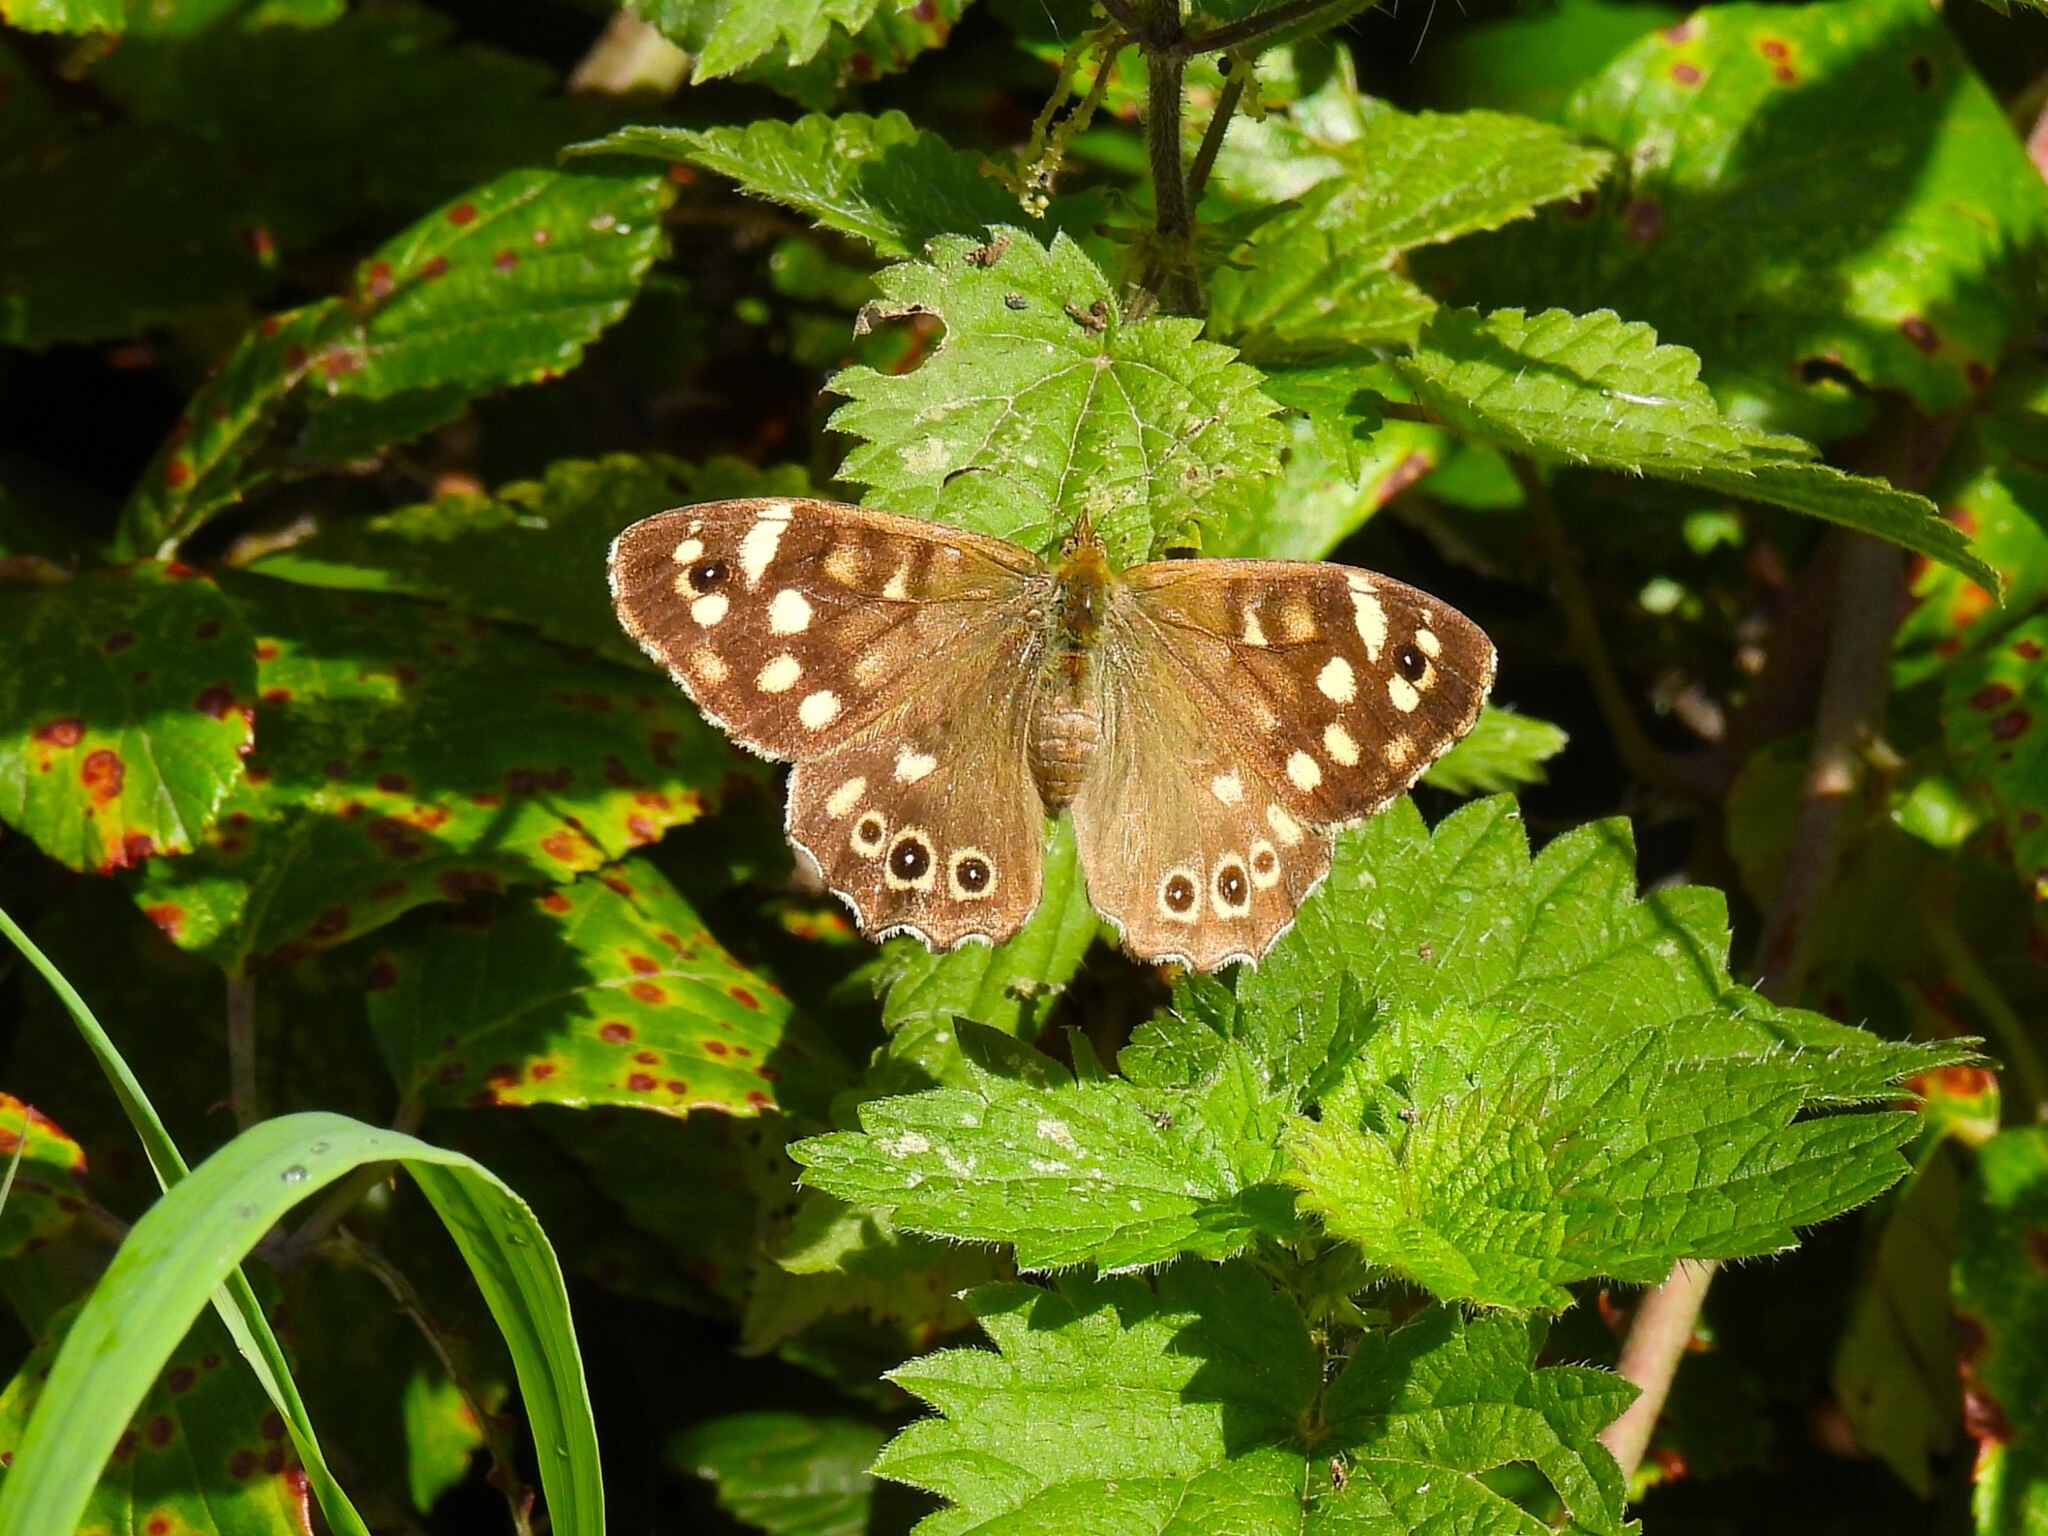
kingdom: Animalia
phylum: Arthropoda
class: Insecta
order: Lepidoptera
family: Nymphalidae
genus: Pararge
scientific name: Pararge aegeria
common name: Speckled wood
